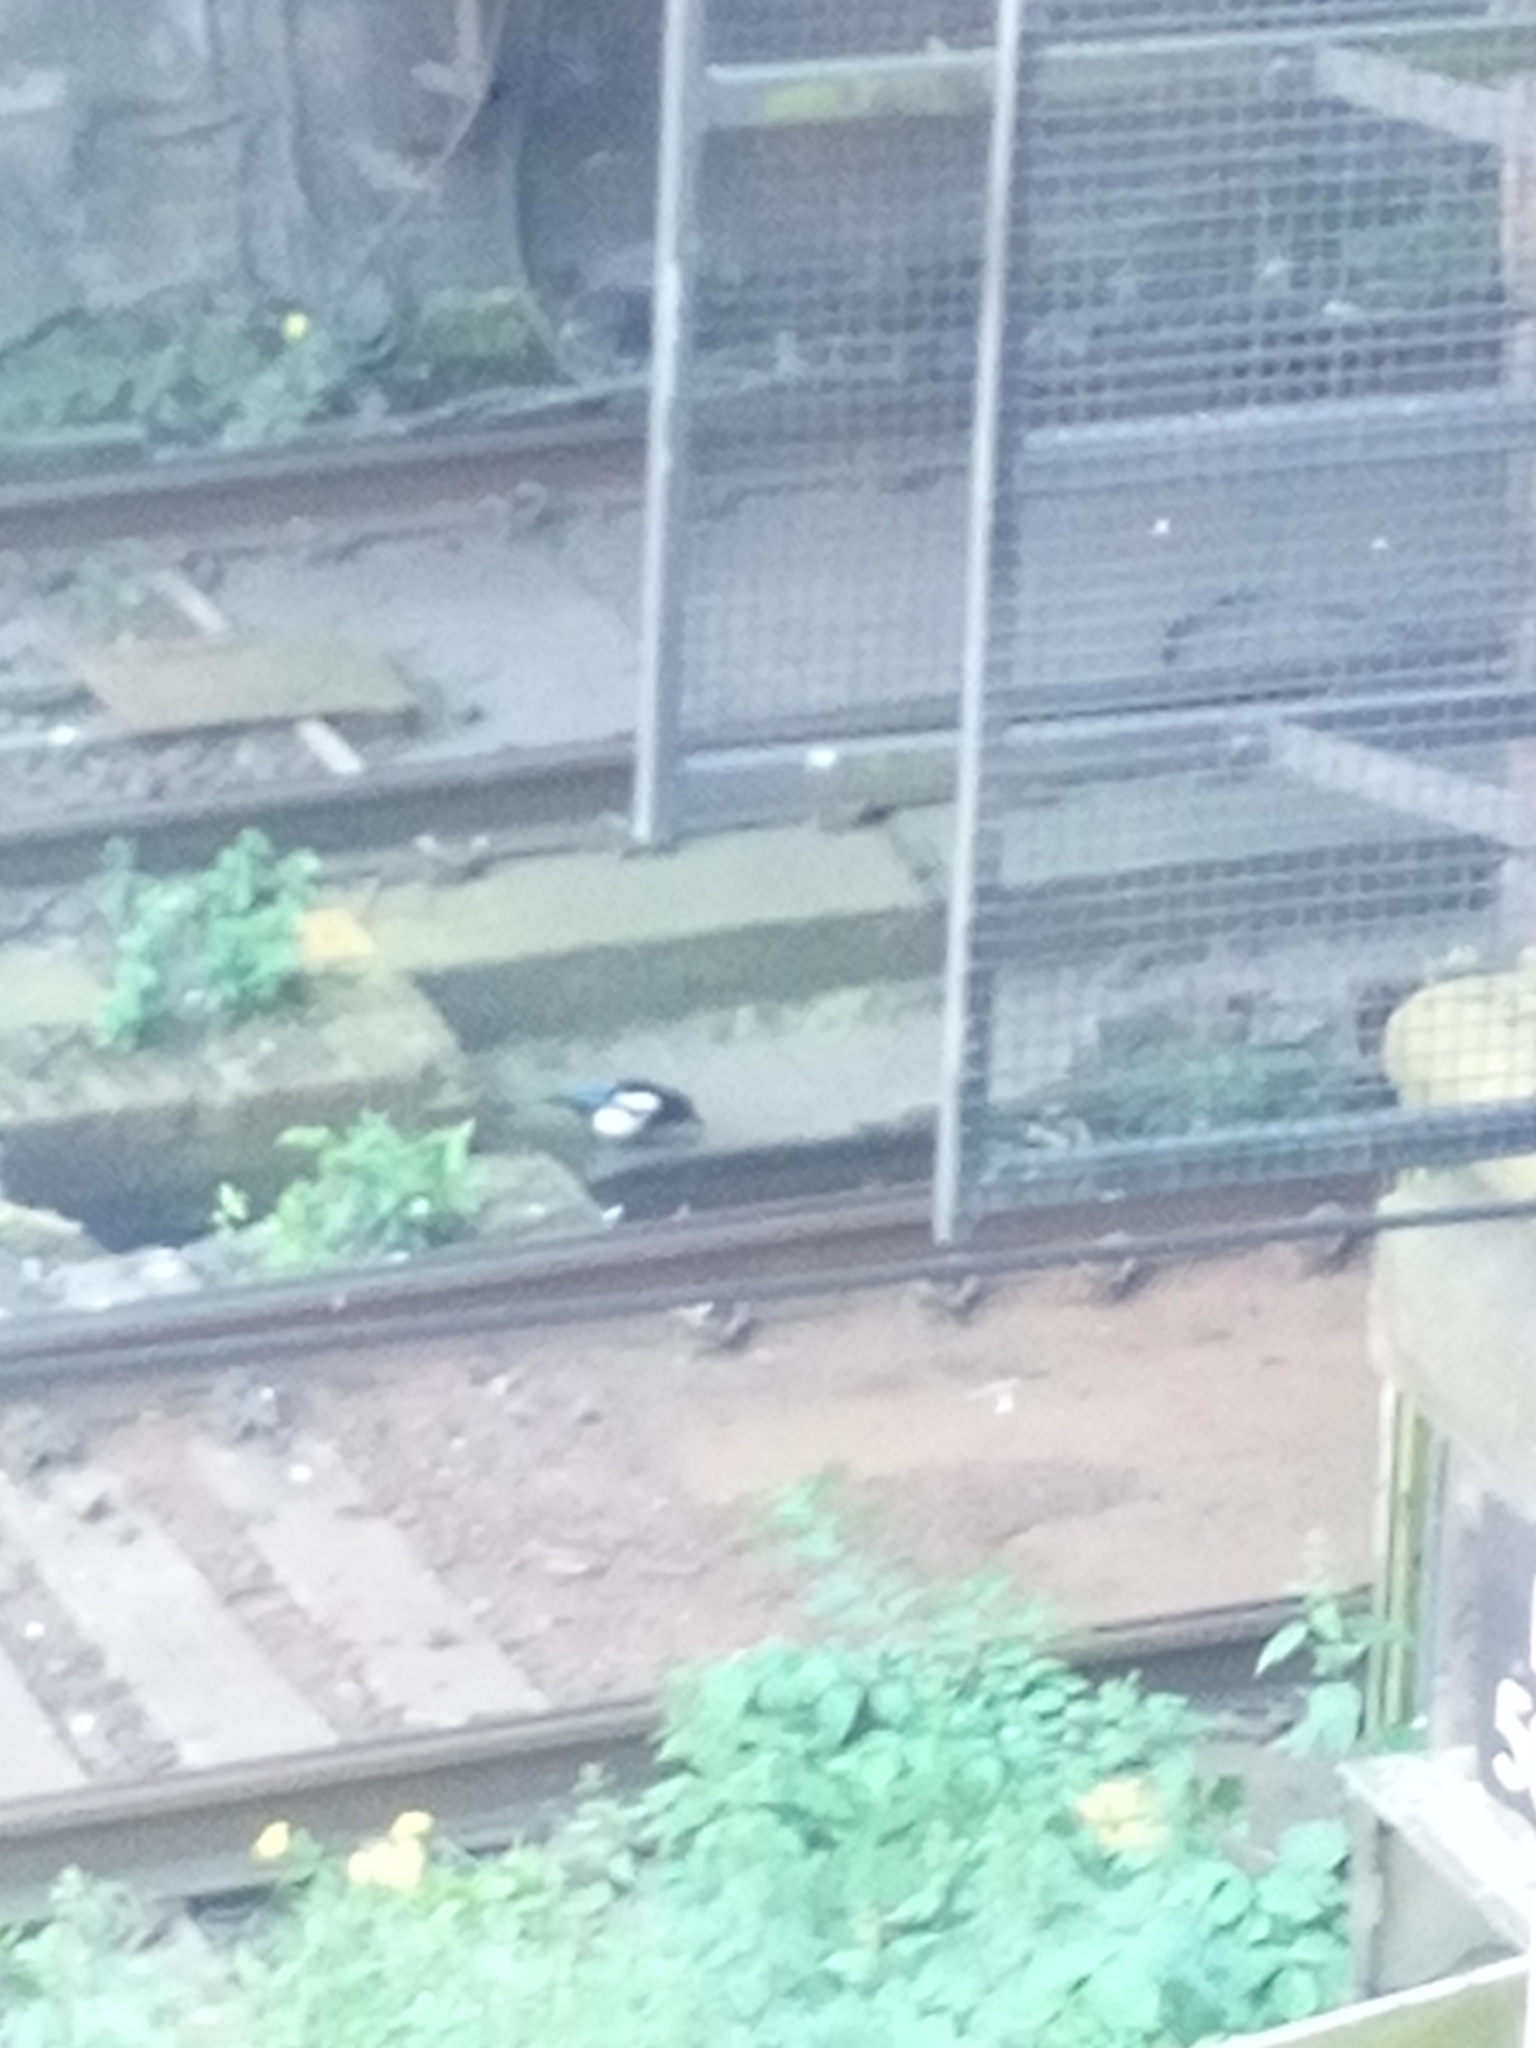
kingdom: Animalia
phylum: Chordata
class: Aves
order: Passeriformes
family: Corvidae
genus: Pica
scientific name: Pica pica
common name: Eurasian magpie
